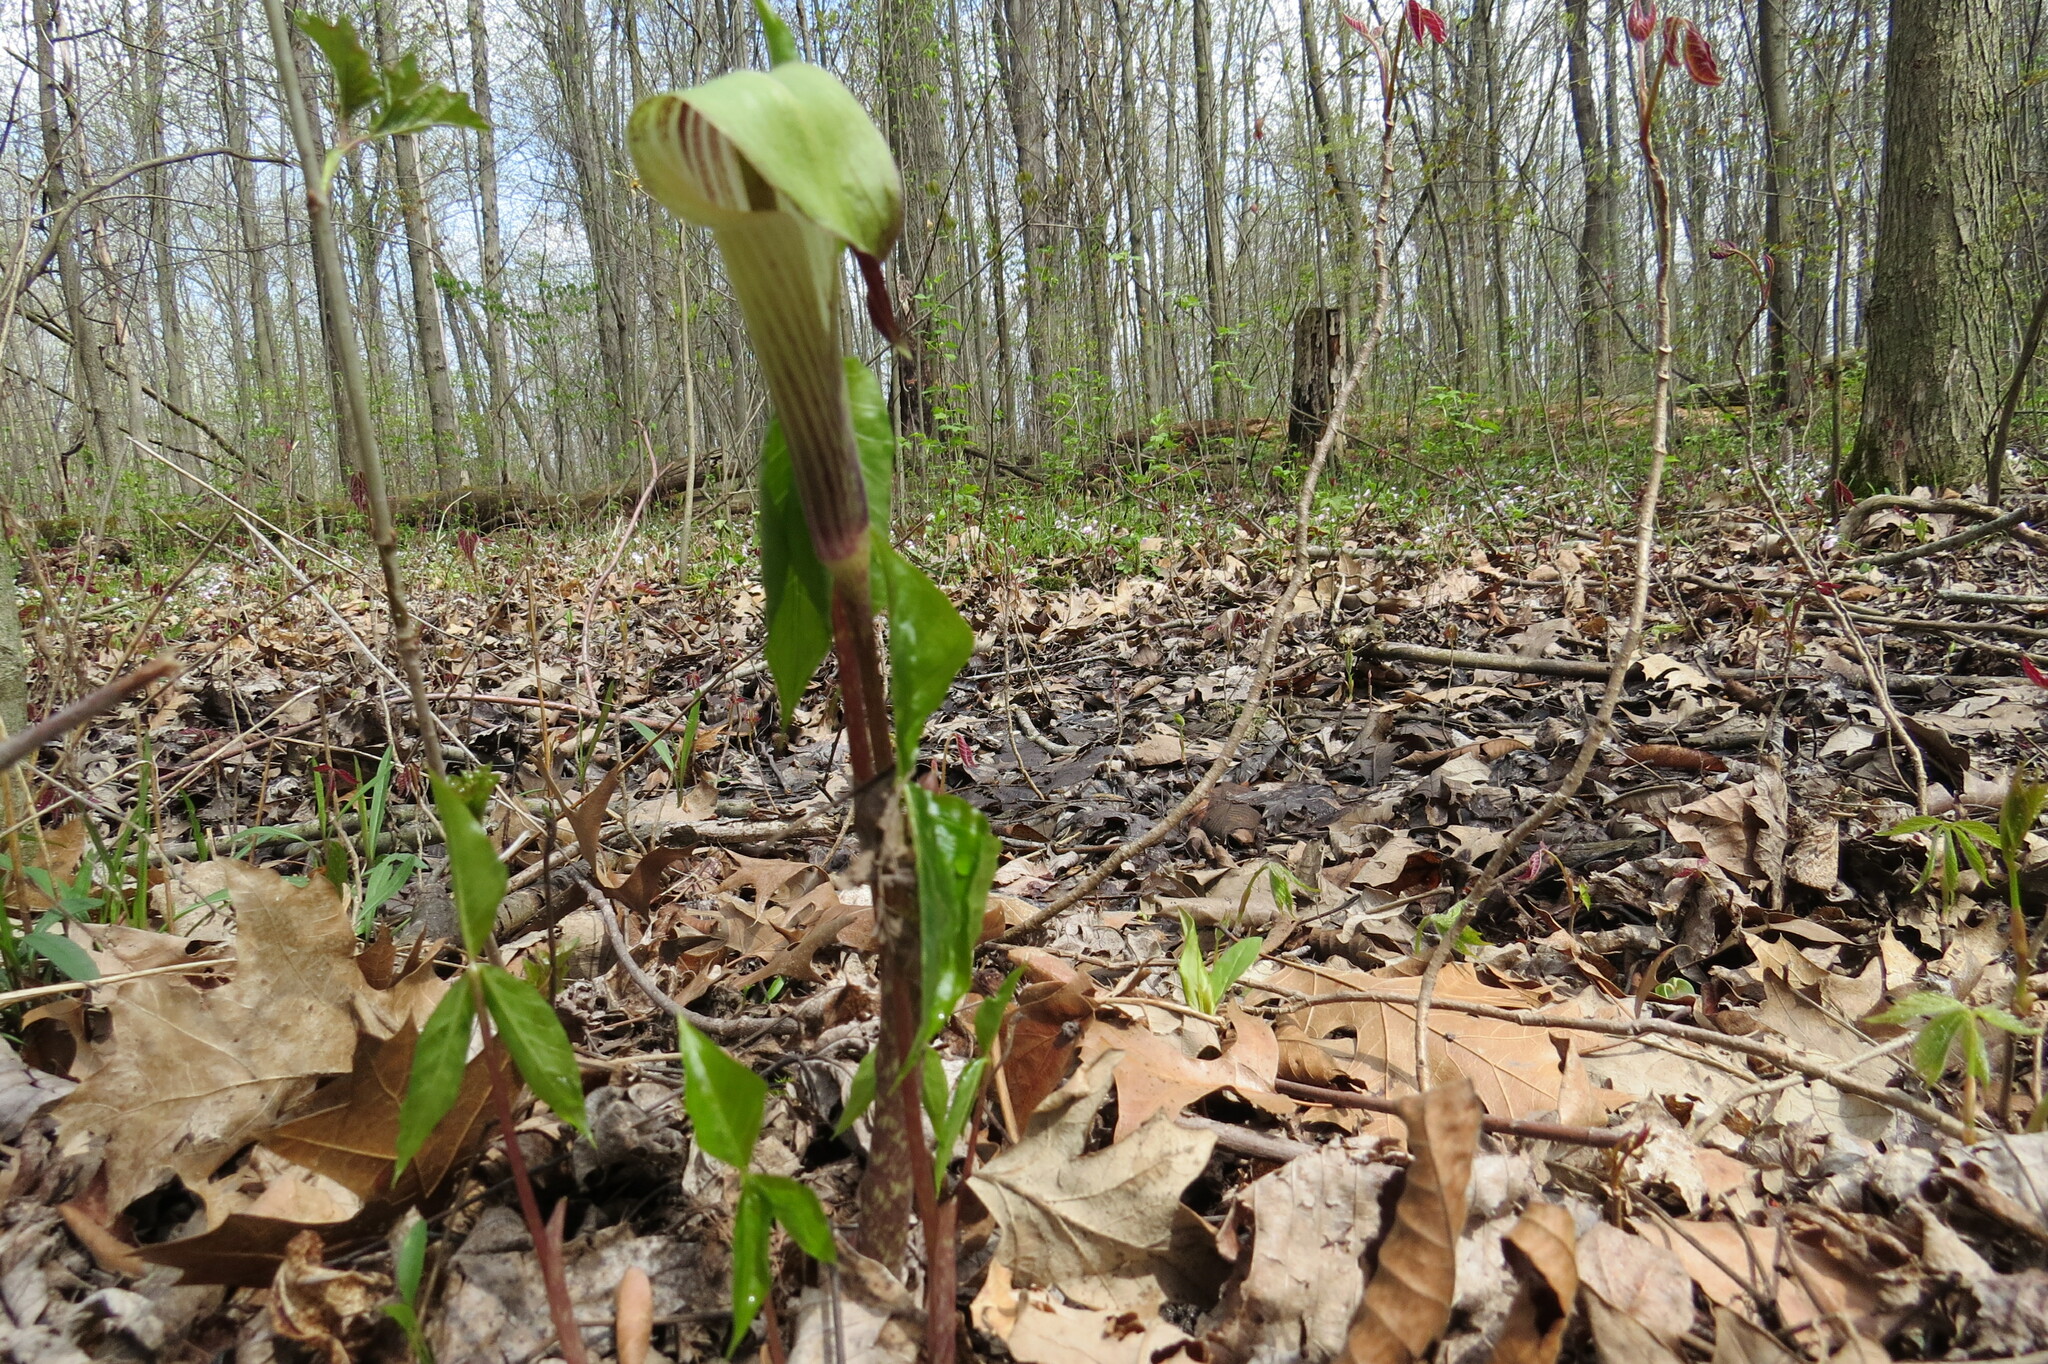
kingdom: Plantae
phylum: Tracheophyta
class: Liliopsida
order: Alismatales
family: Araceae
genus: Arisaema
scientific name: Arisaema triphyllum
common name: Jack-in-the-pulpit
